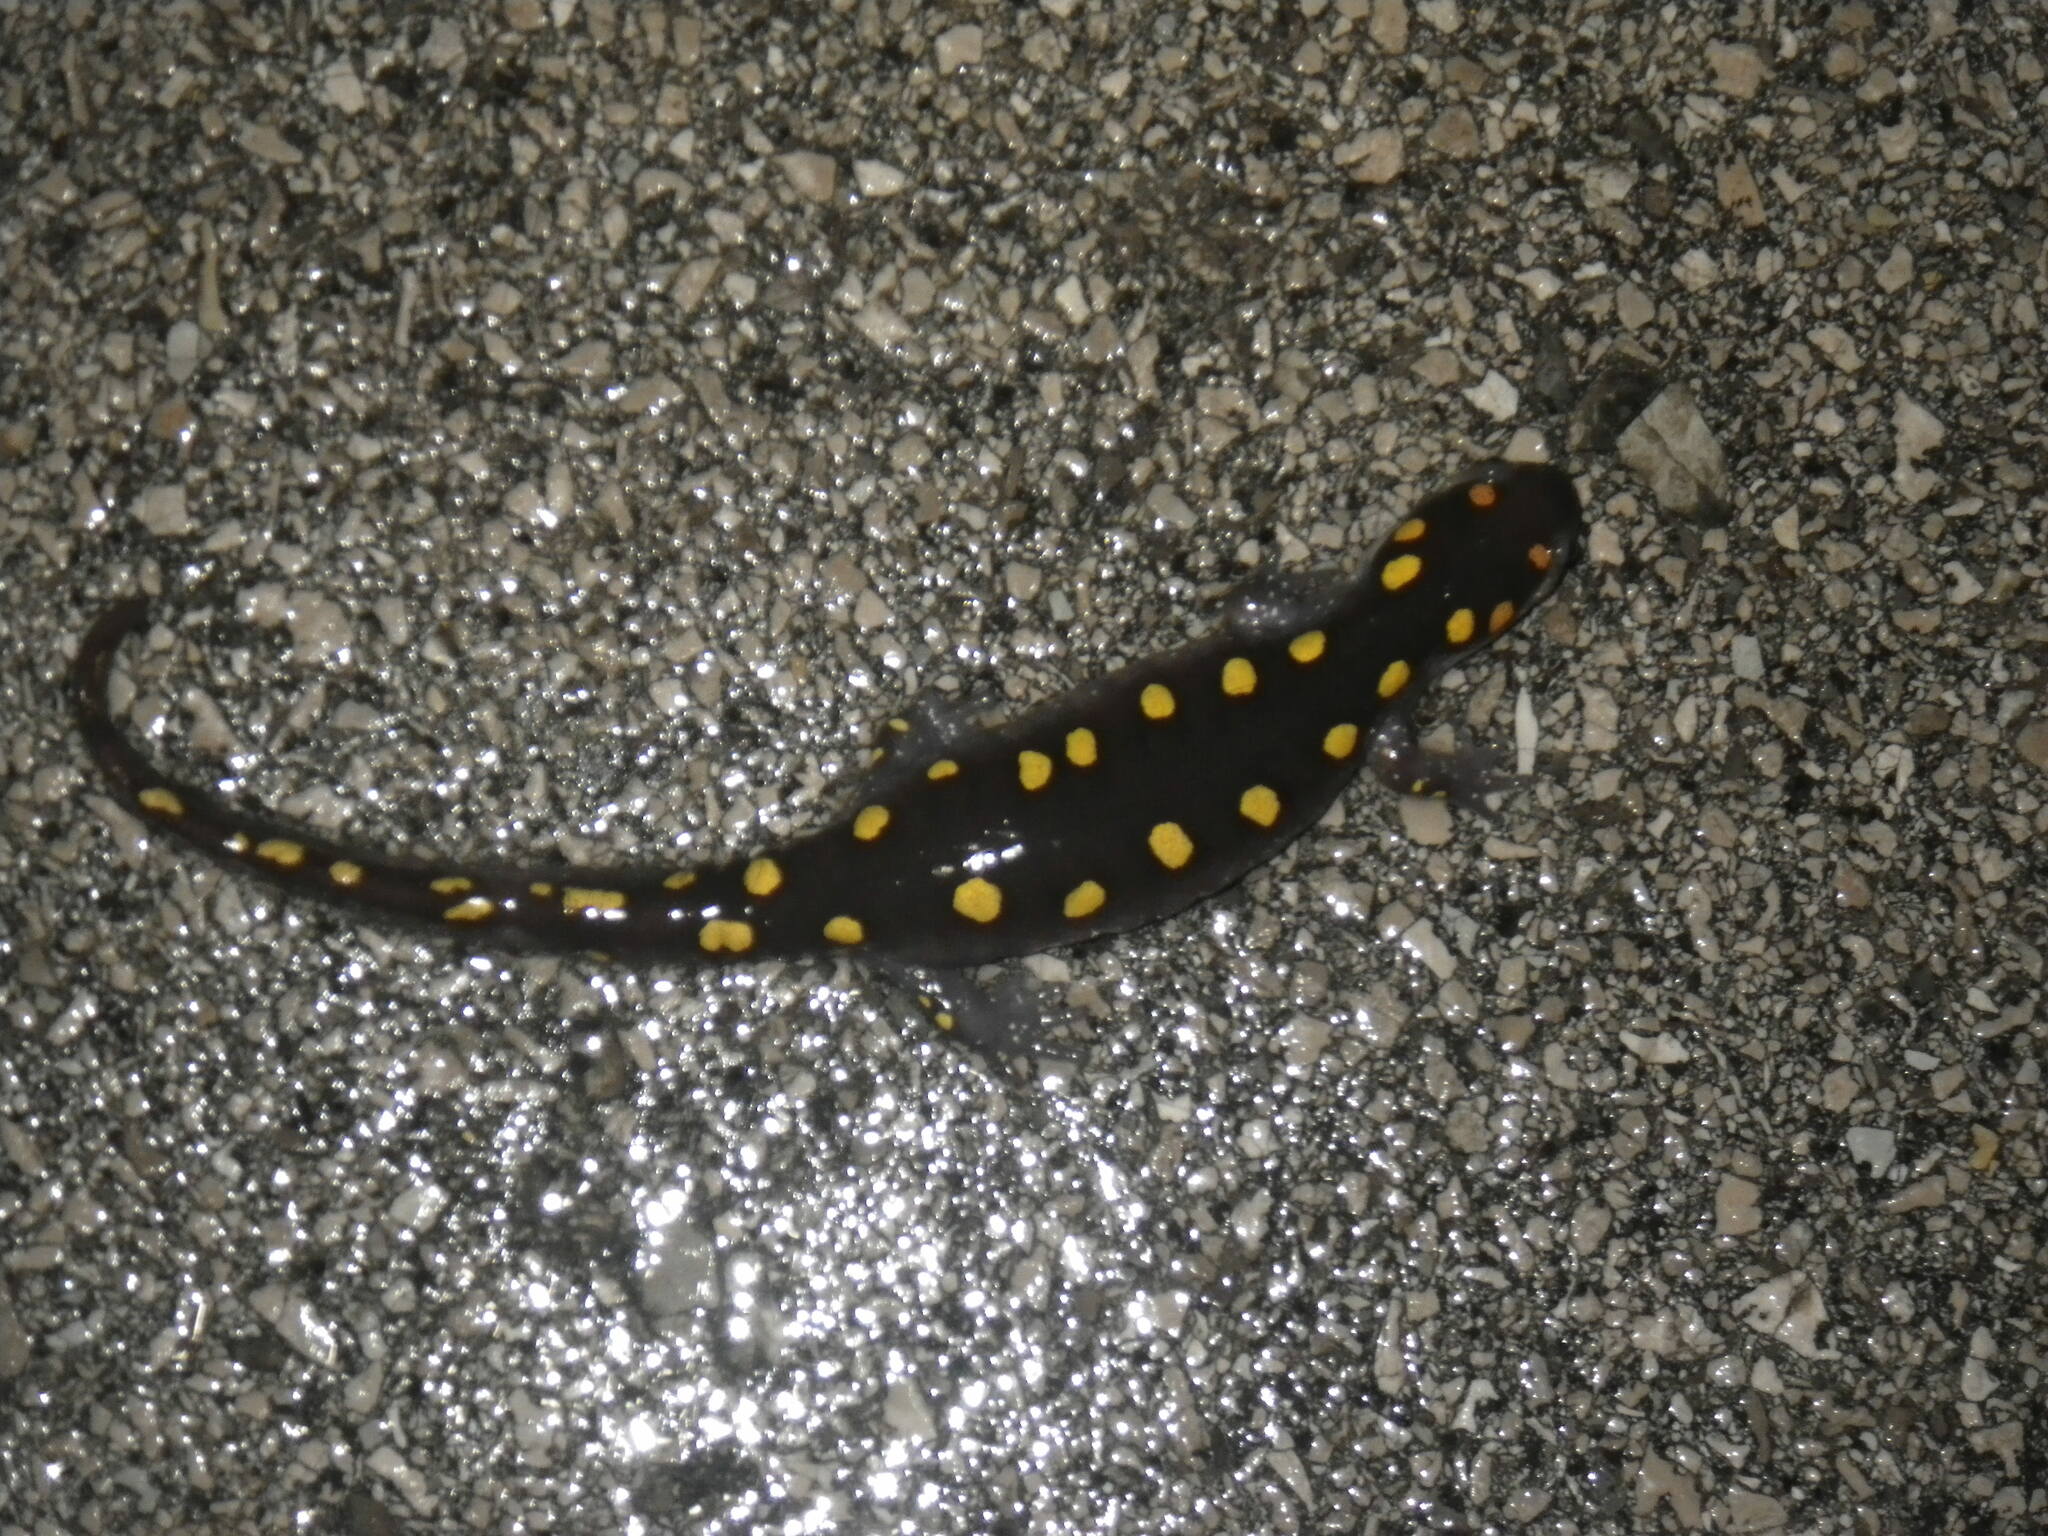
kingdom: Animalia
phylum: Chordata
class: Amphibia
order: Caudata
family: Ambystomatidae
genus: Ambystoma
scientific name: Ambystoma maculatum
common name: Spotted salamander
